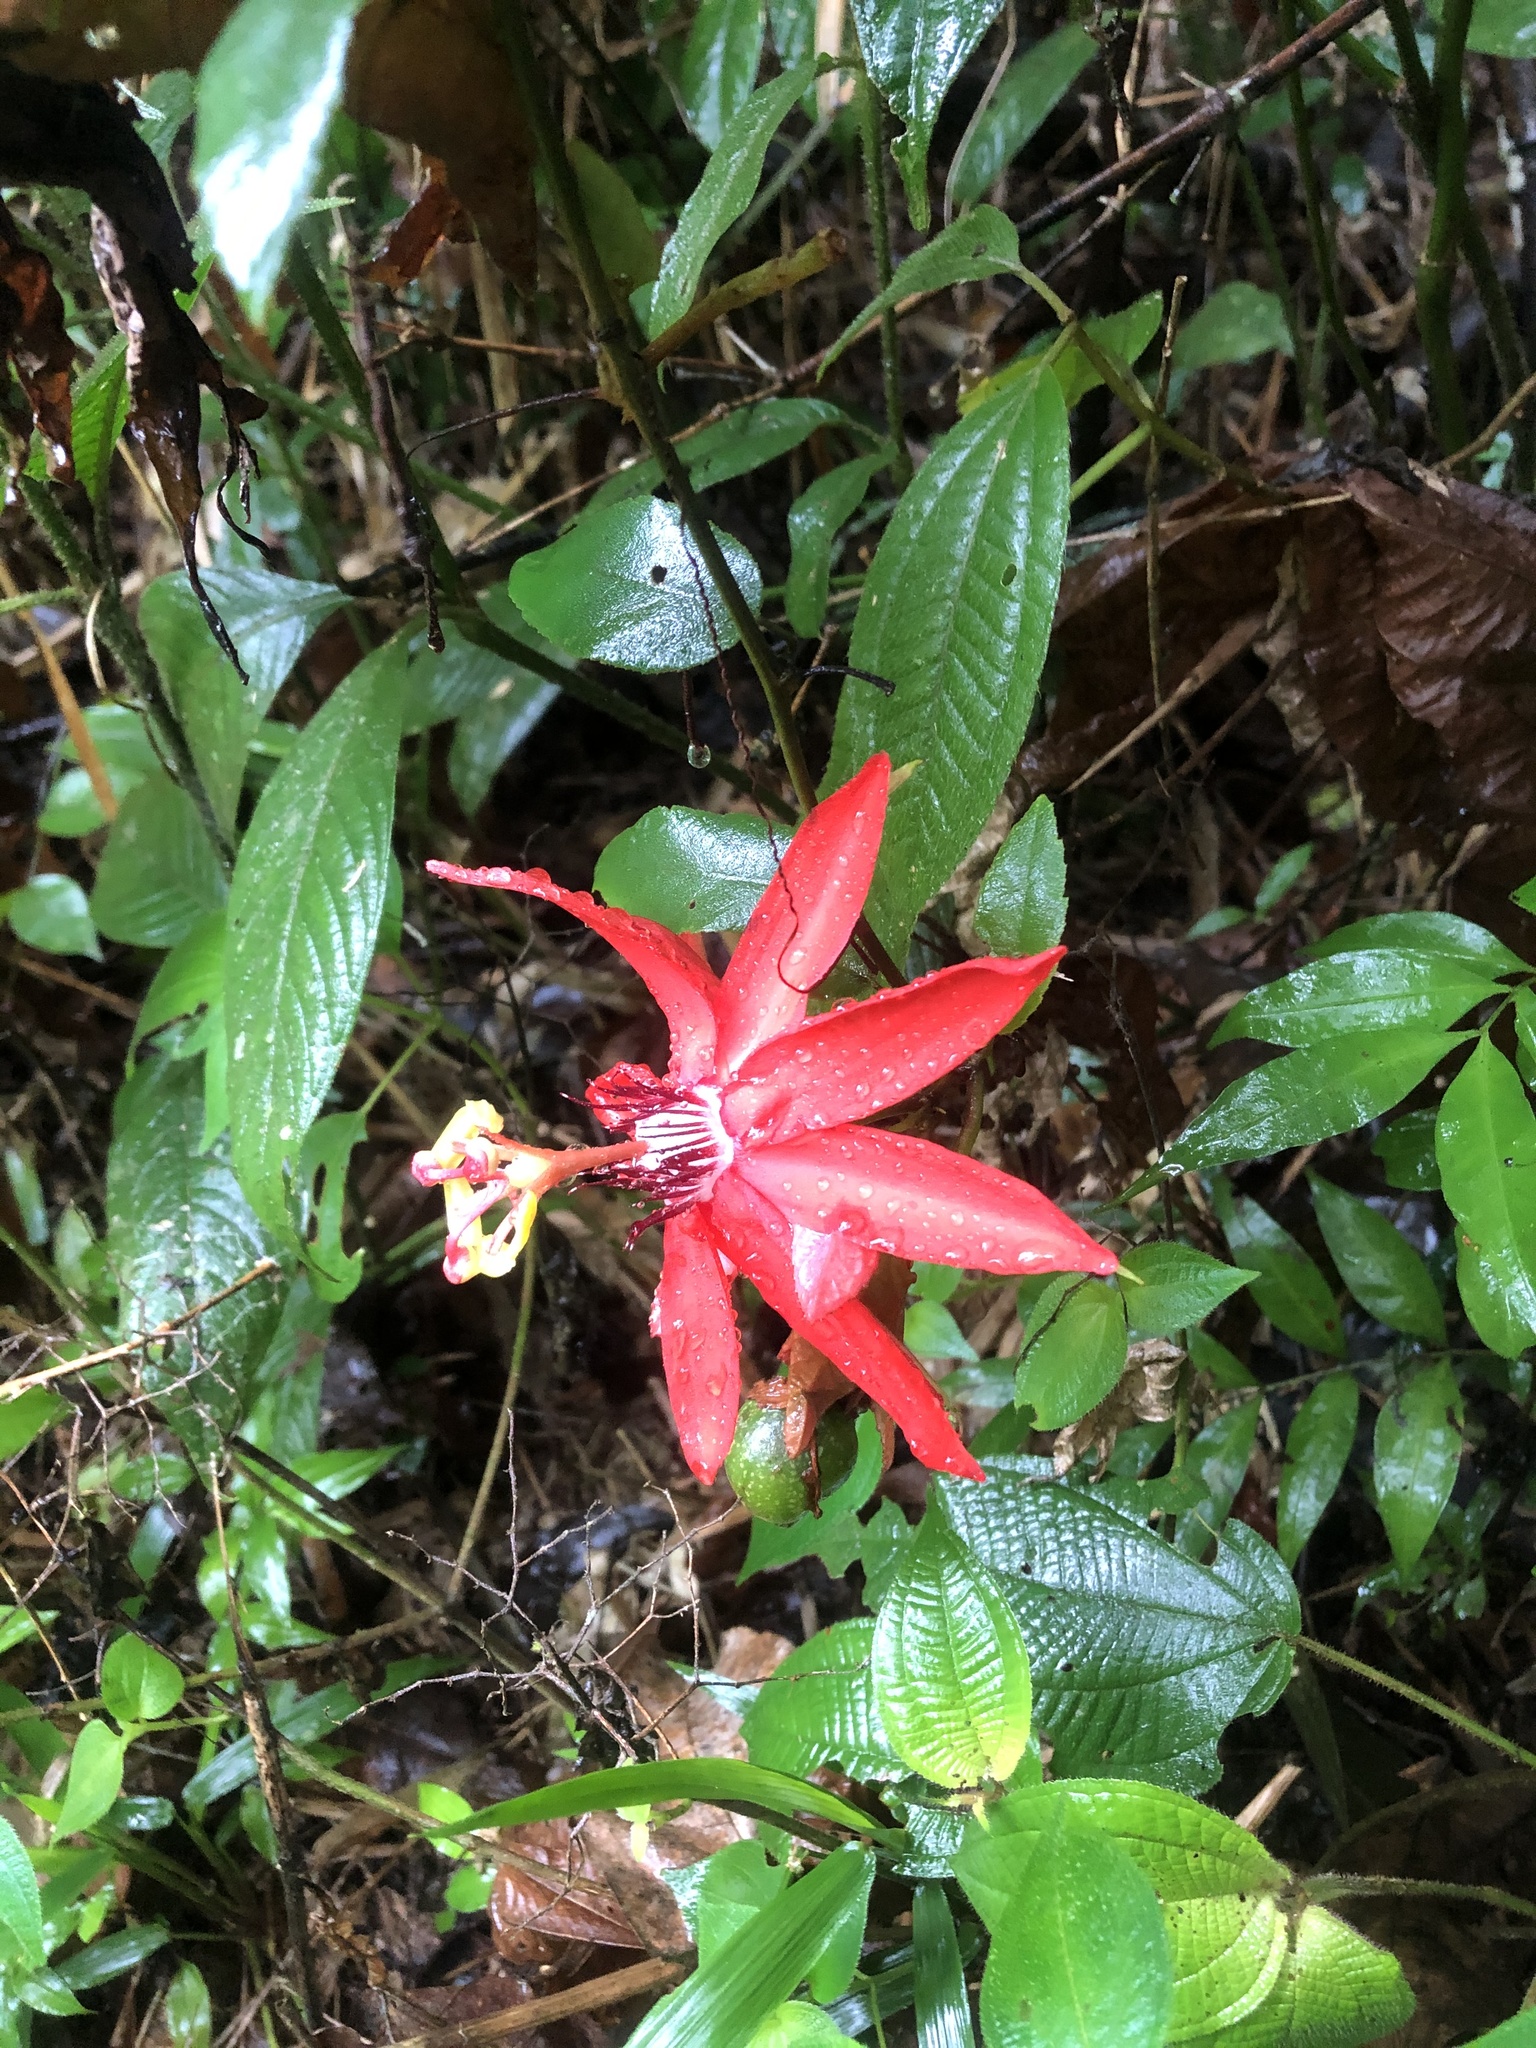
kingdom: Plantae
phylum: Tracheophyta
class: Magnoliopsida
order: Malpighiales
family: Passifloraceae
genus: Passiflora
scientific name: Passiflora miniata
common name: Red granadilla
